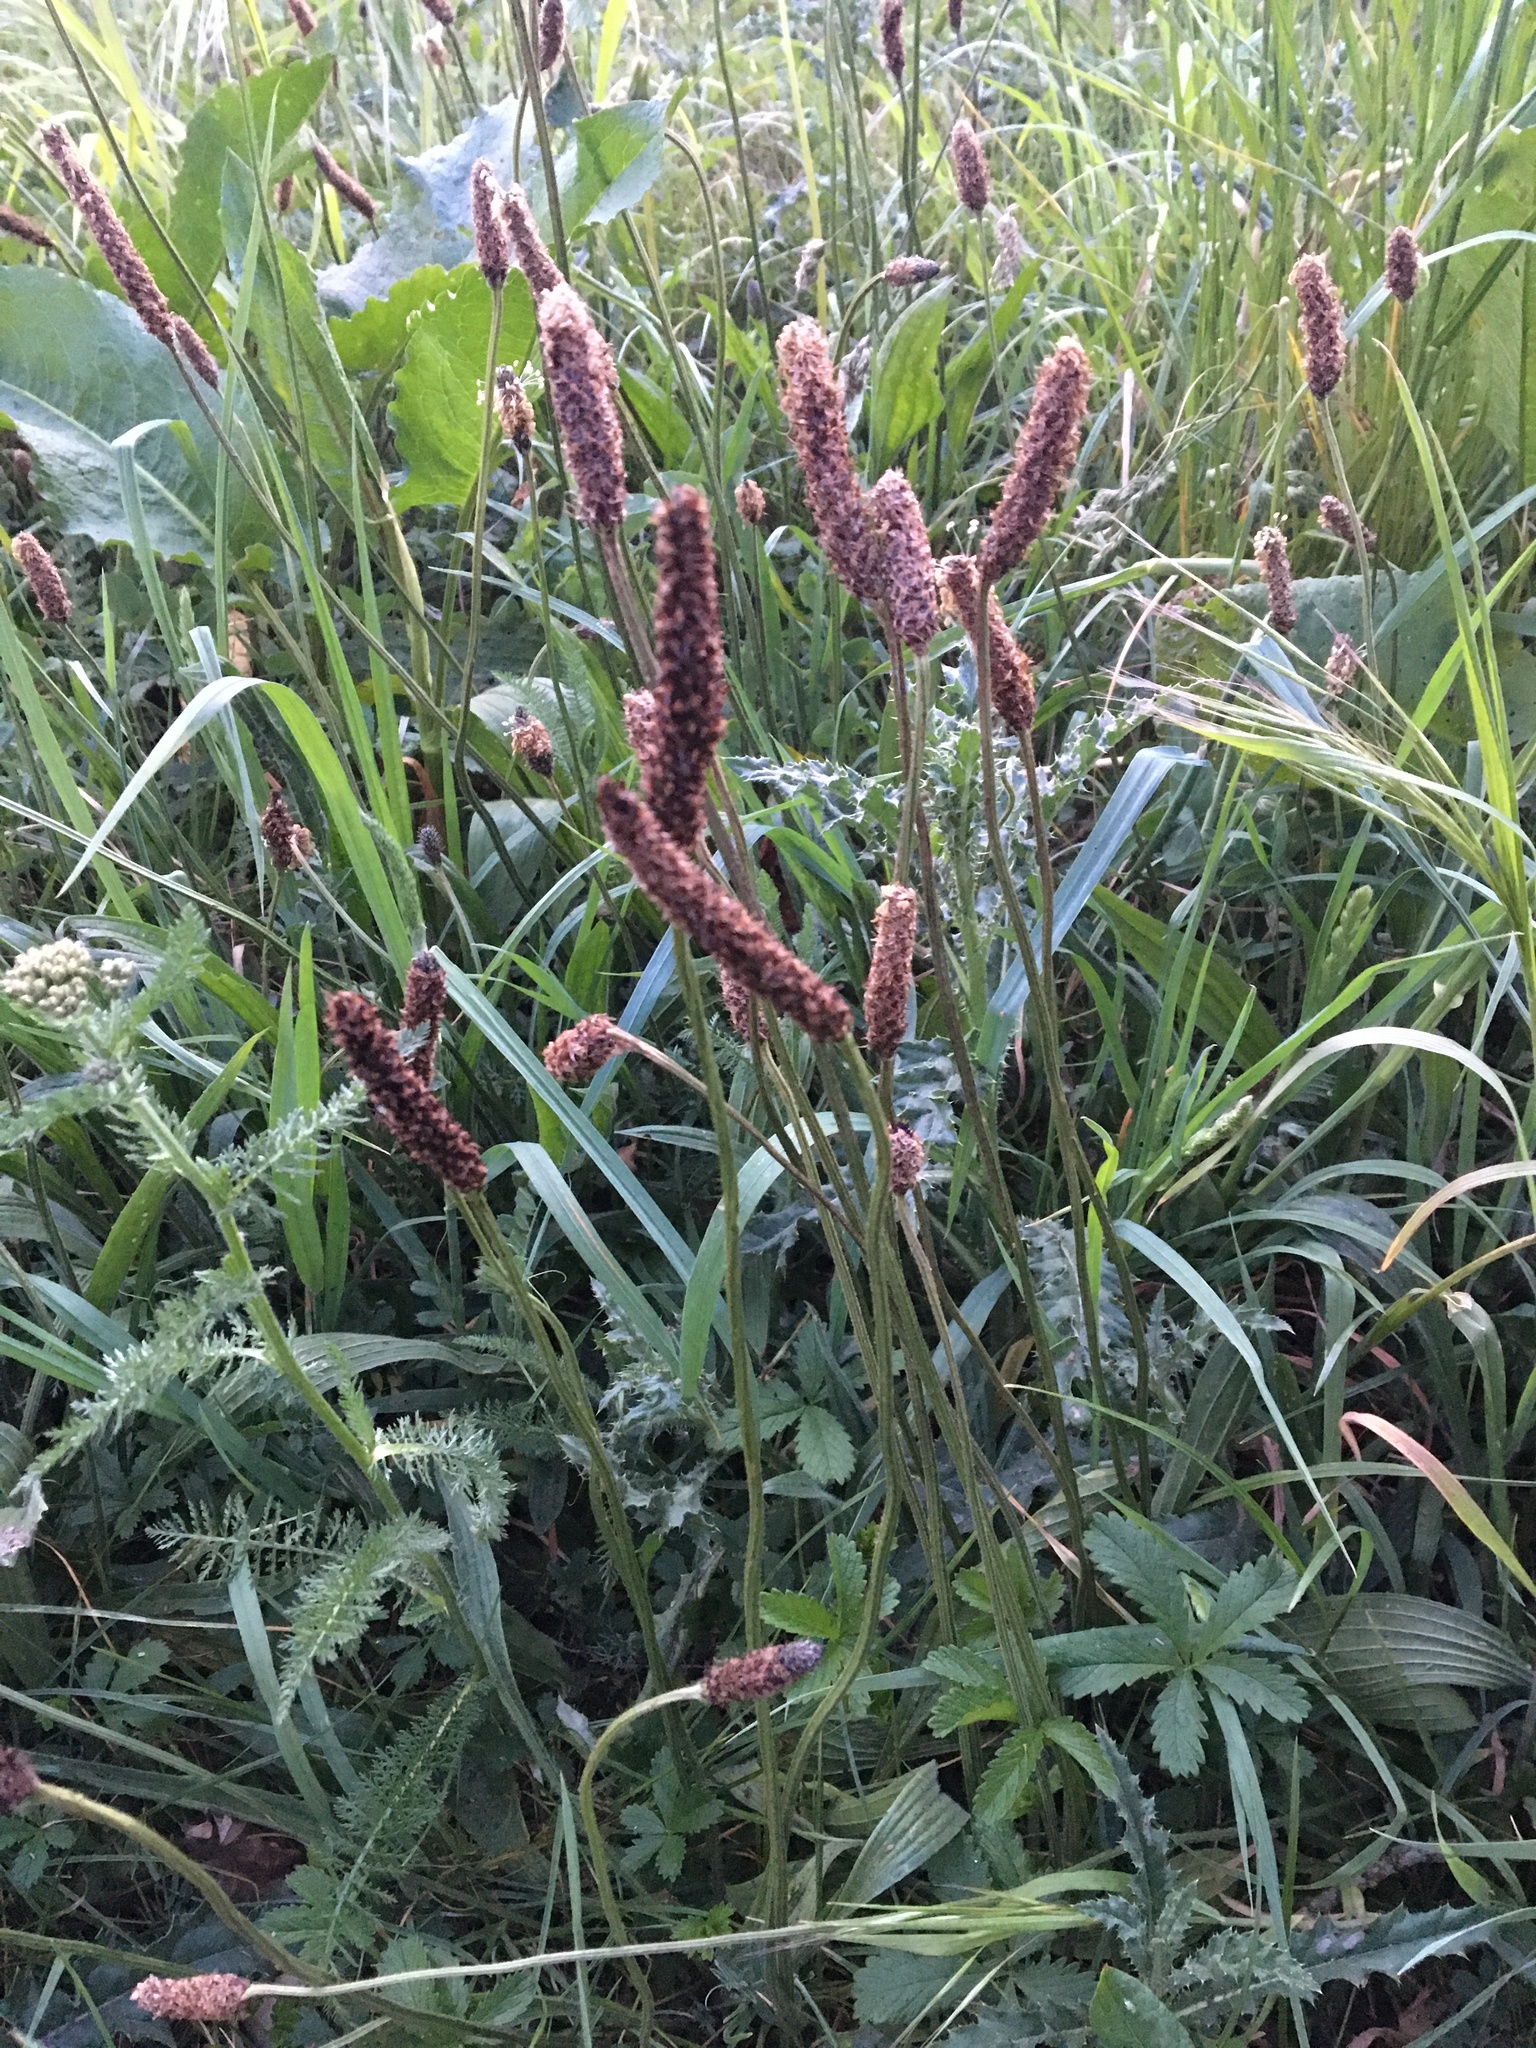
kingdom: Plantae
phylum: Tracheophyta
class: Magnoliopsida
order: Lamiales
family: Plantaginaceae
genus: Plantago
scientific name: Plantago lanceolata
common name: Ribwort plantain
